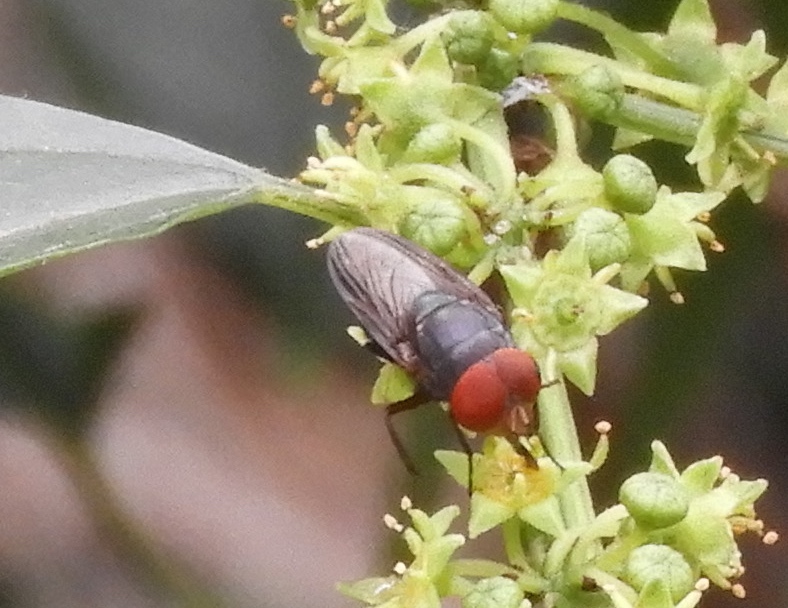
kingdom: Animalia
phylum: Arthropoda
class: Insecta
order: Diptera
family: Calliphoridae
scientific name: Calliphoridae
